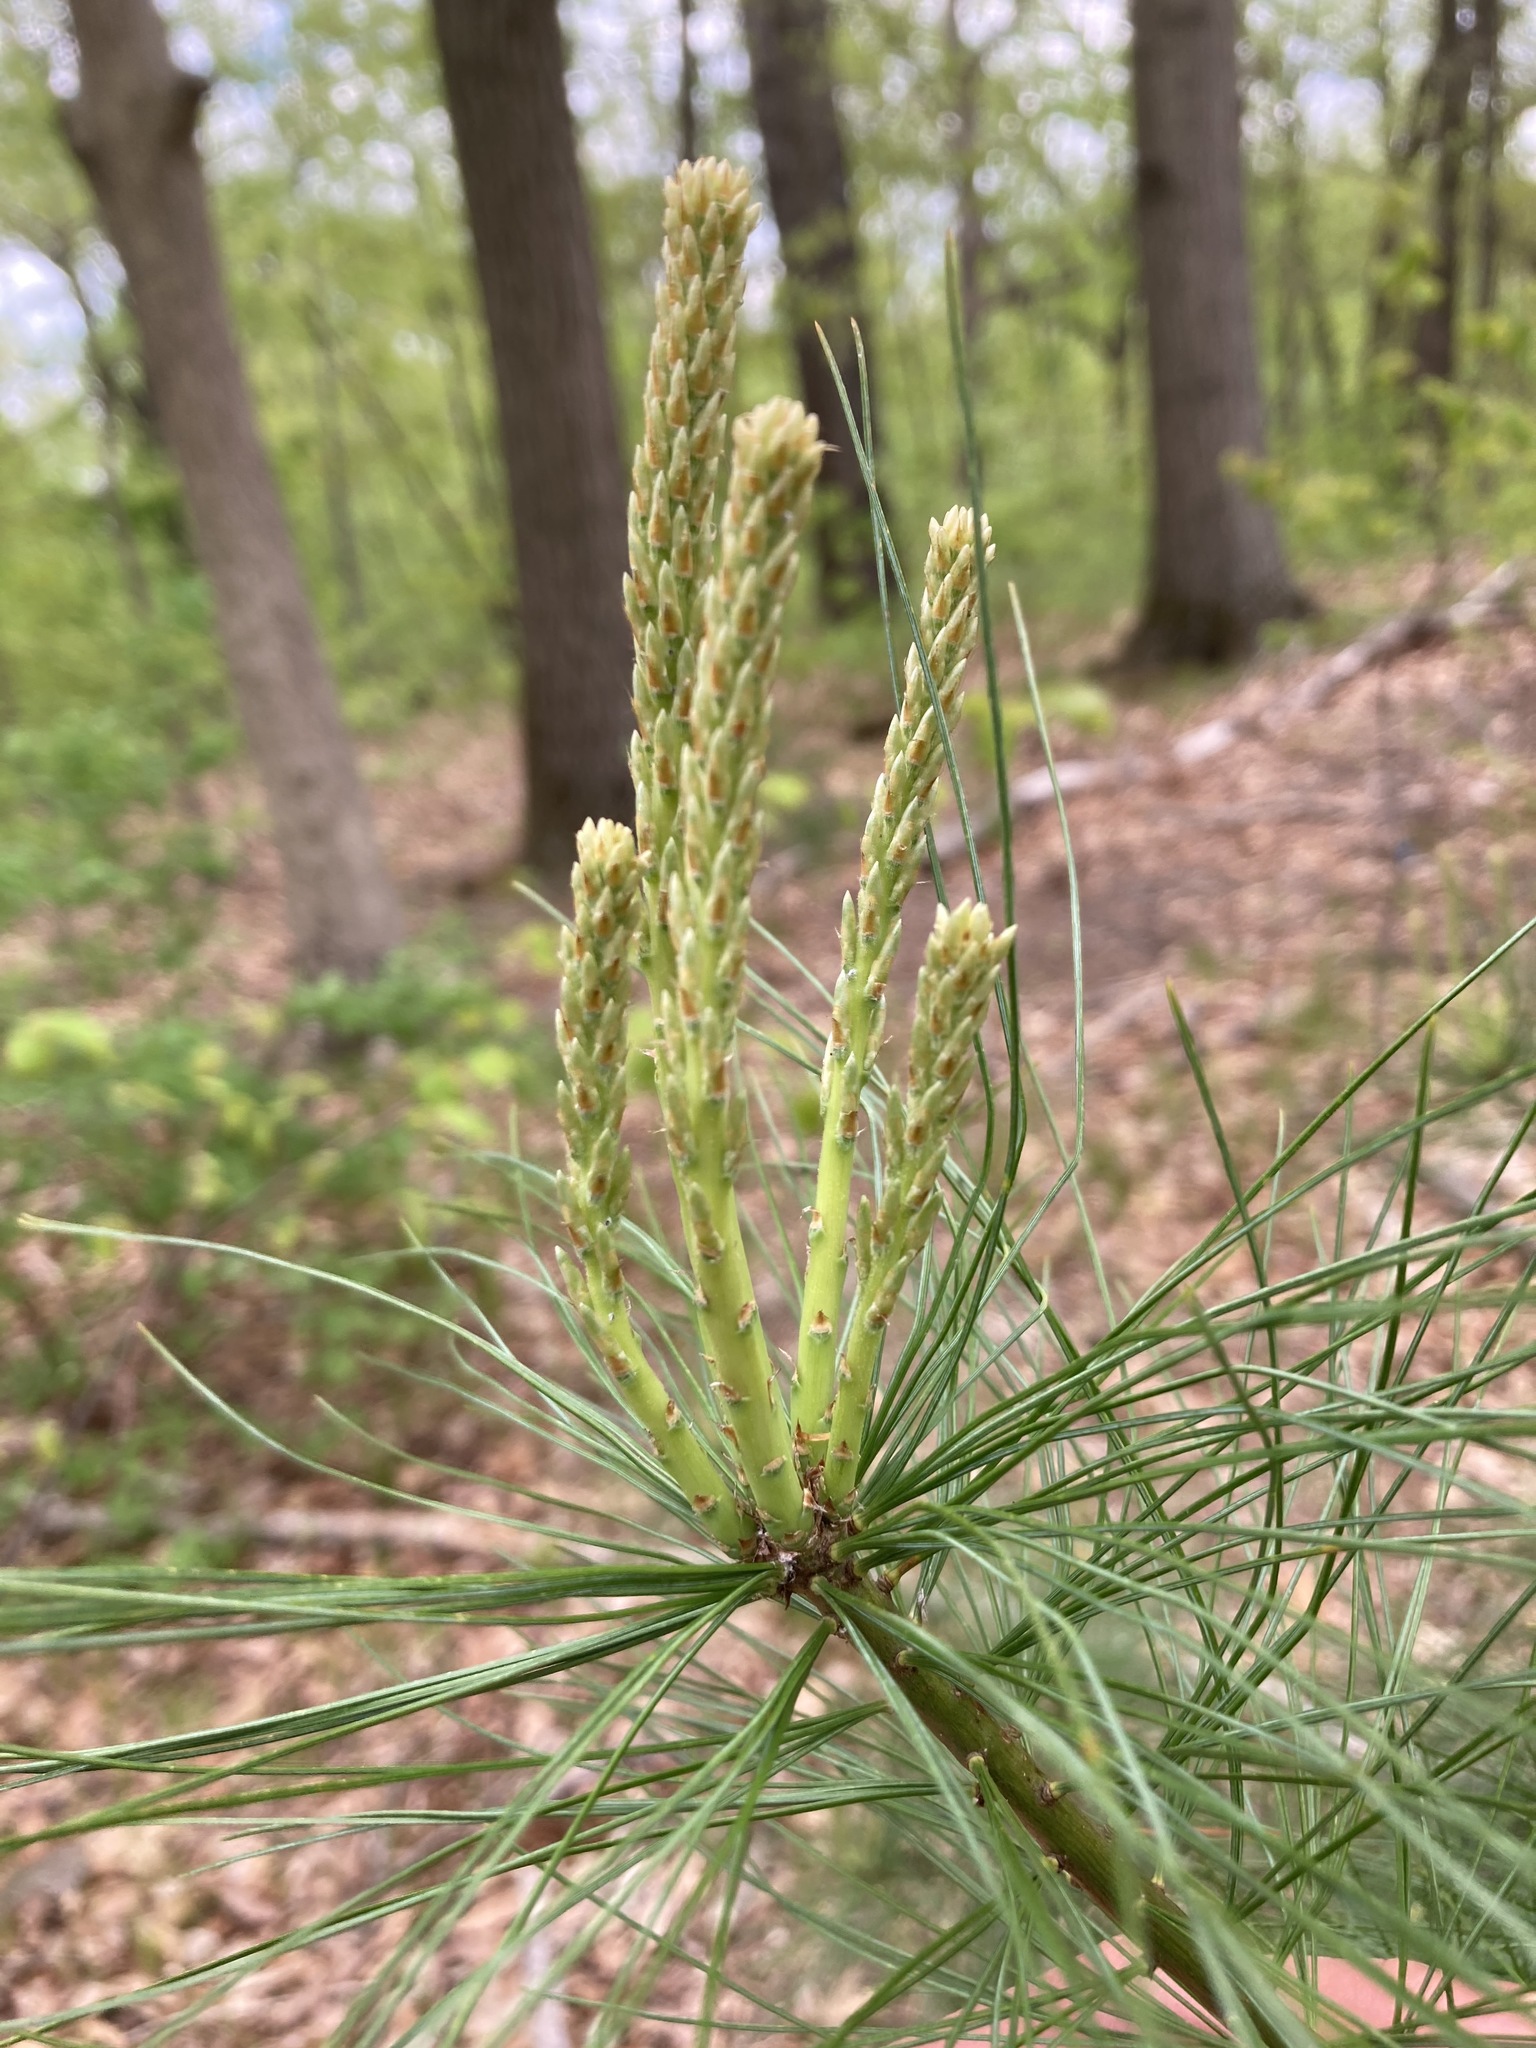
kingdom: Plantae
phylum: Tracheophyta
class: Pinopsida
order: Pinales
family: Pinaceae
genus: Pinus
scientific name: Pinus strobus
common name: Weymouth pine
